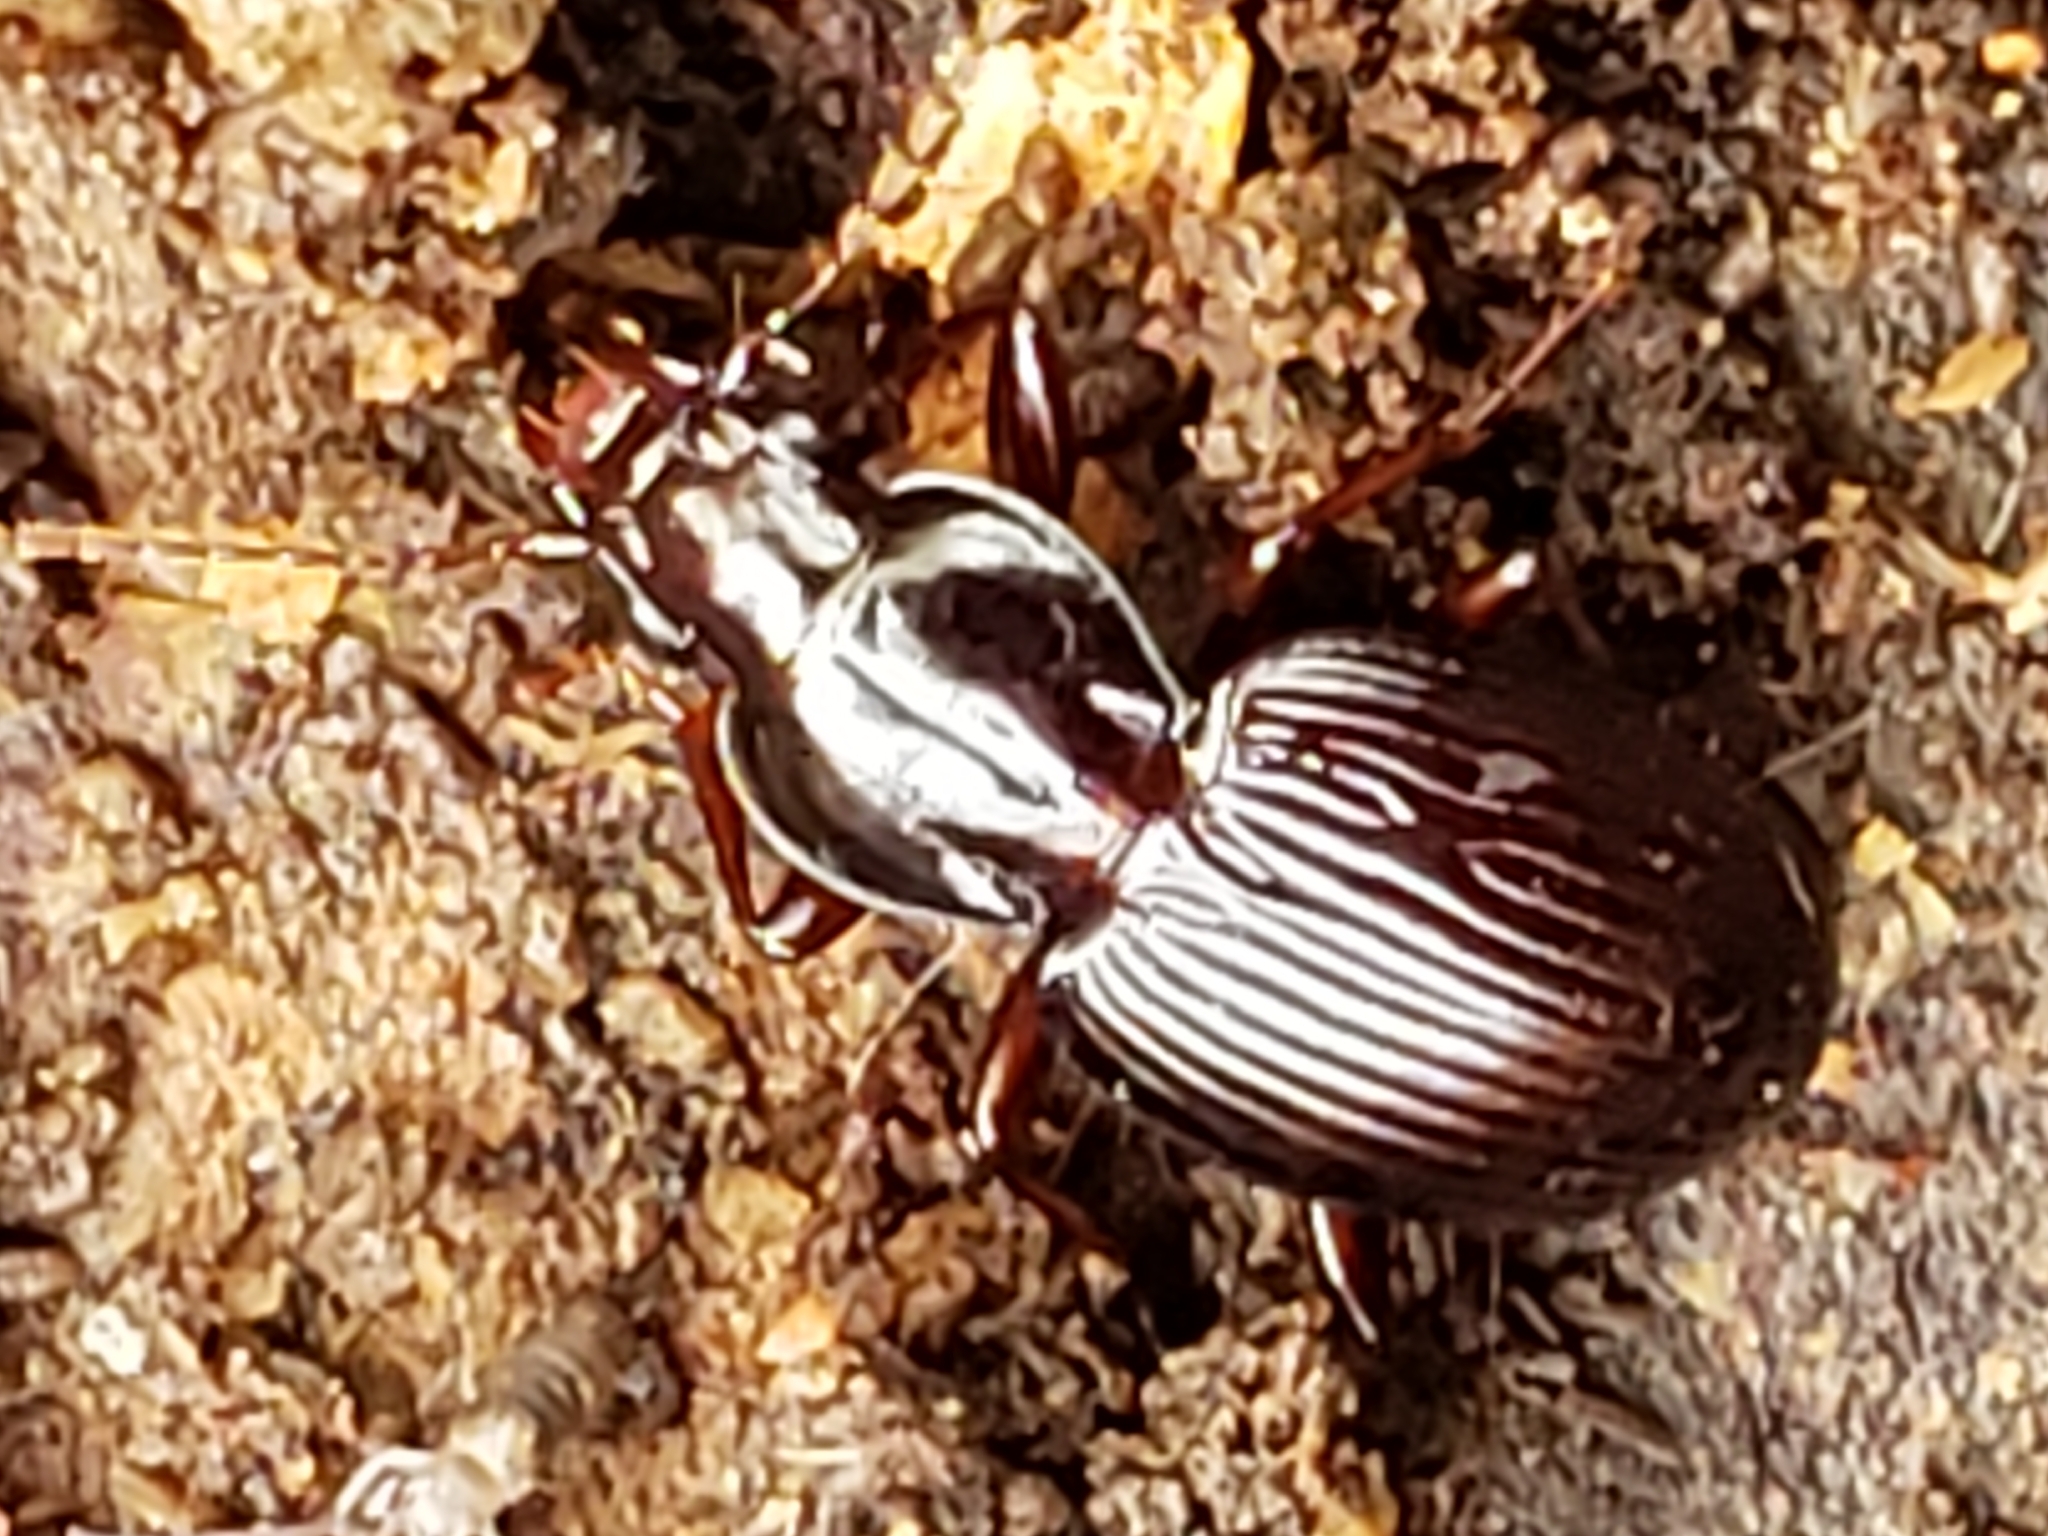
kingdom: Animalia
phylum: Arthropoda
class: Insecta
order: Coleoptera
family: Carabidae
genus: Gastrellarius
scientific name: Gastrellarius honestus
